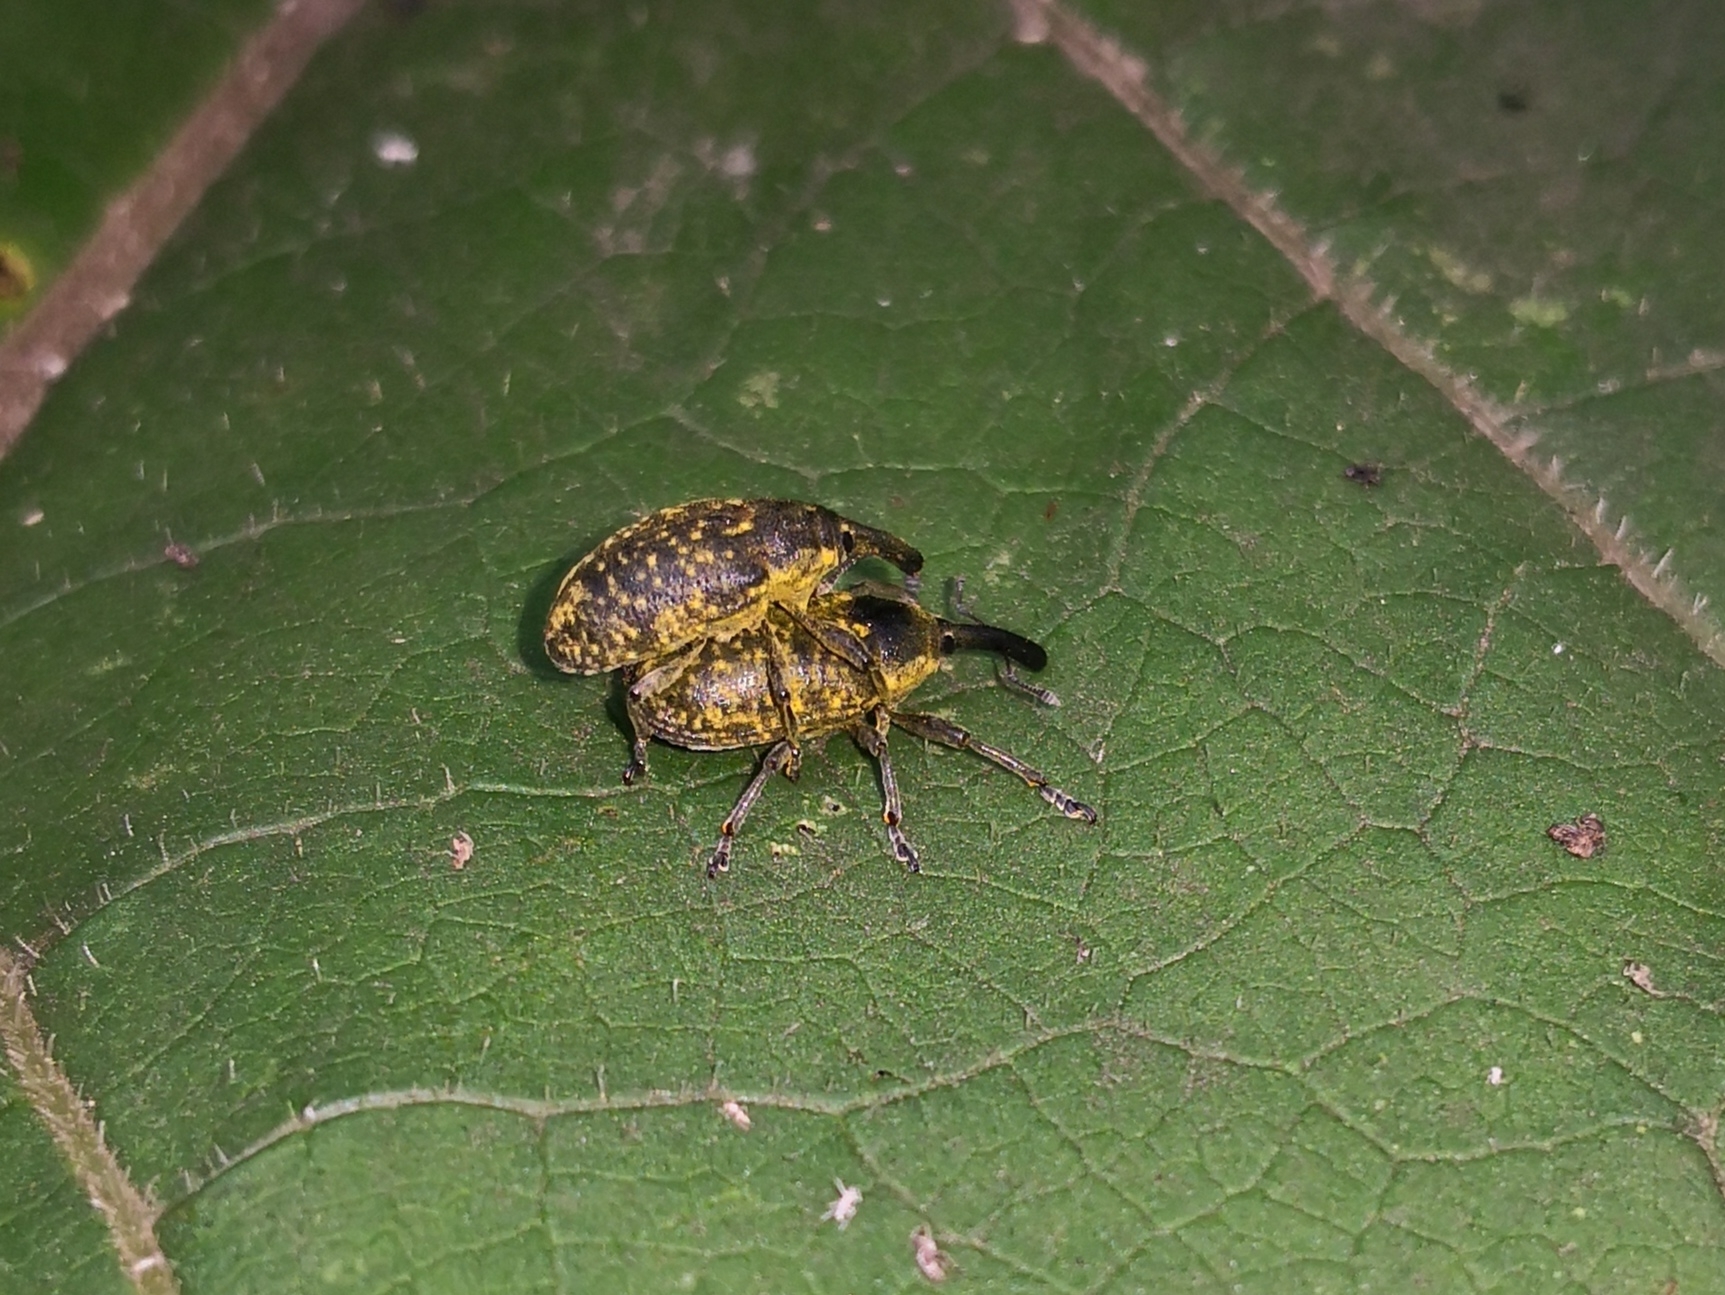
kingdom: Animalia
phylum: Arthropoda
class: Insecta
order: Coleoptera
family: Curculionidae
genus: Larinus
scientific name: Larinus sturnus
